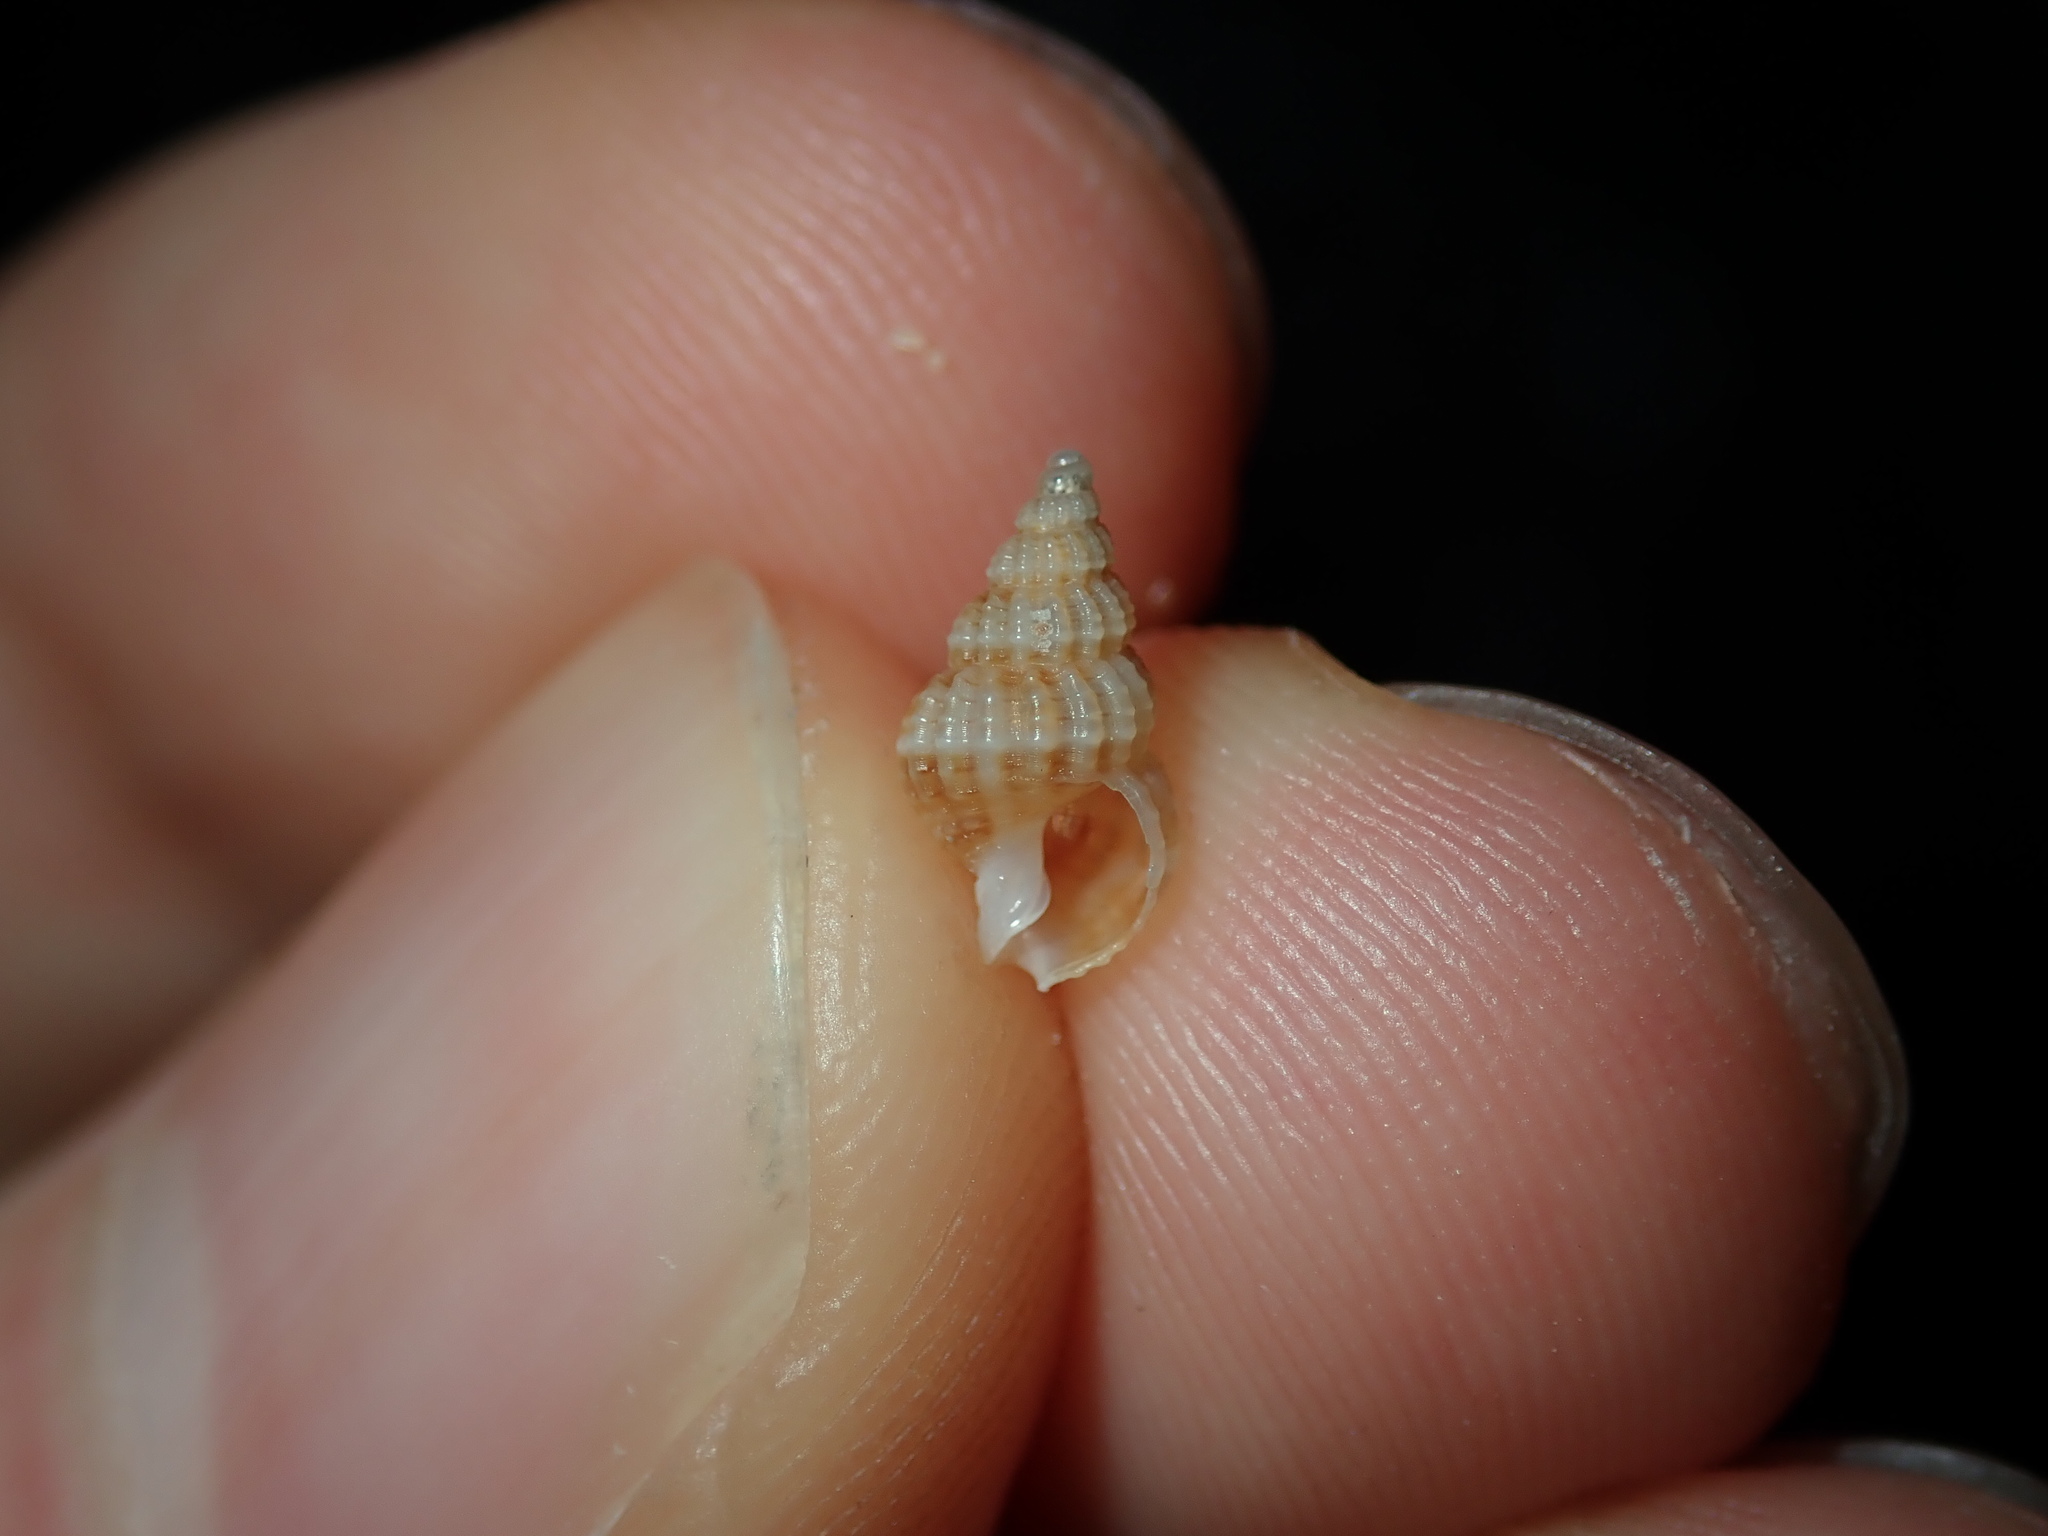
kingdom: Animalia
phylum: Mollusca
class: Gastropoda
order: Neogastropoda
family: Nassariidae
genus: Reticunassa
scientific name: Reticunassa paupera
